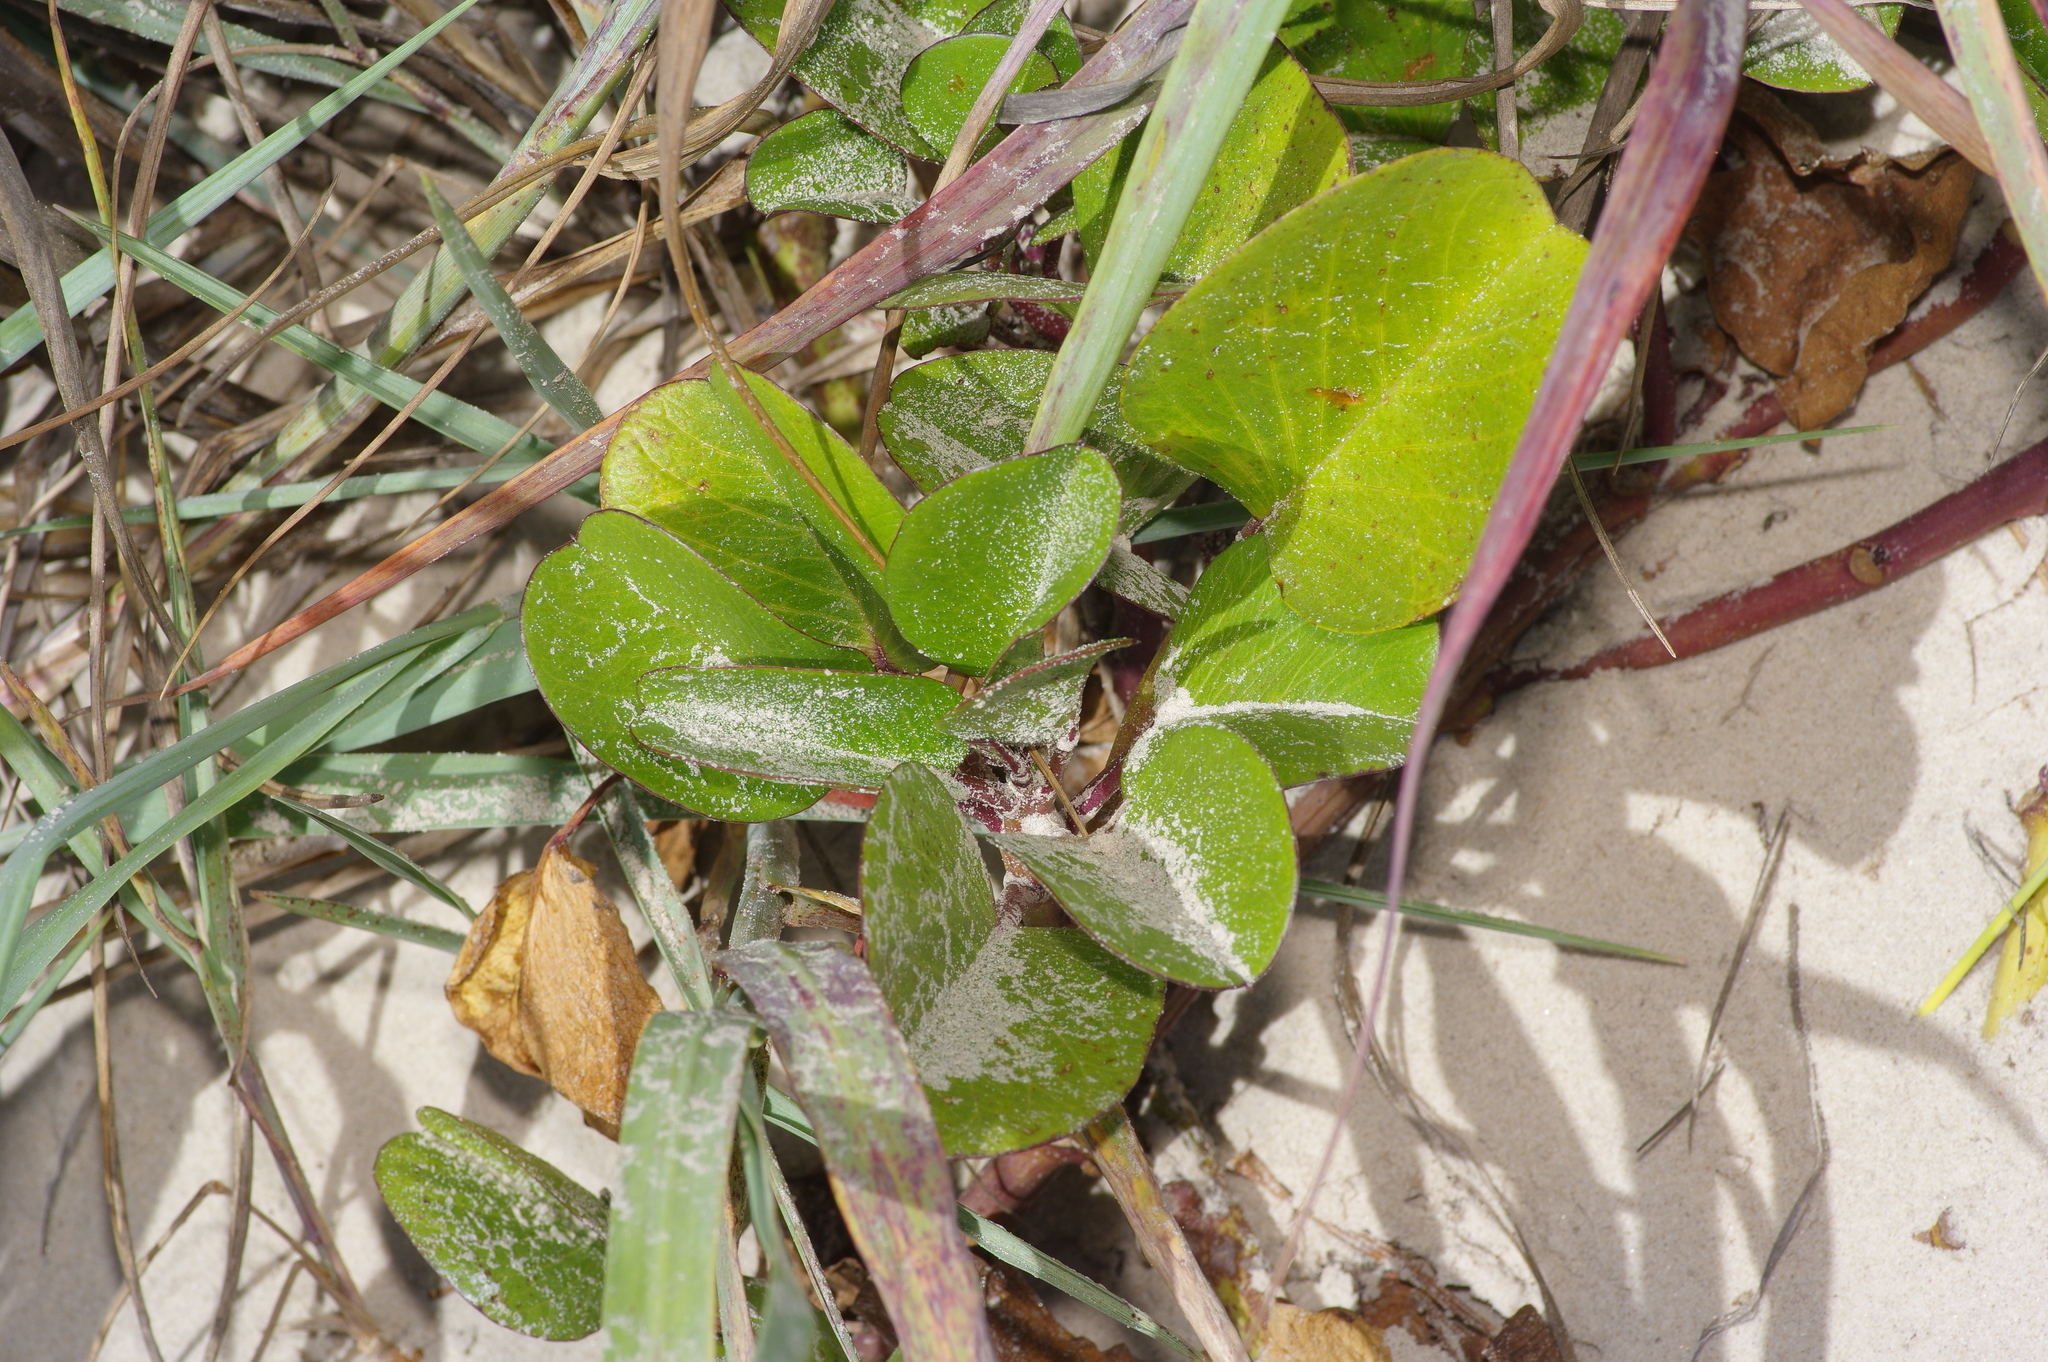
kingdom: Plantae
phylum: Tracheophyta
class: Magnoliopsida
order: Solanales
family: Convolvulaceae
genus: Ipomoea
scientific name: Ipomoea pes-caprae
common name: Beach morning glory
